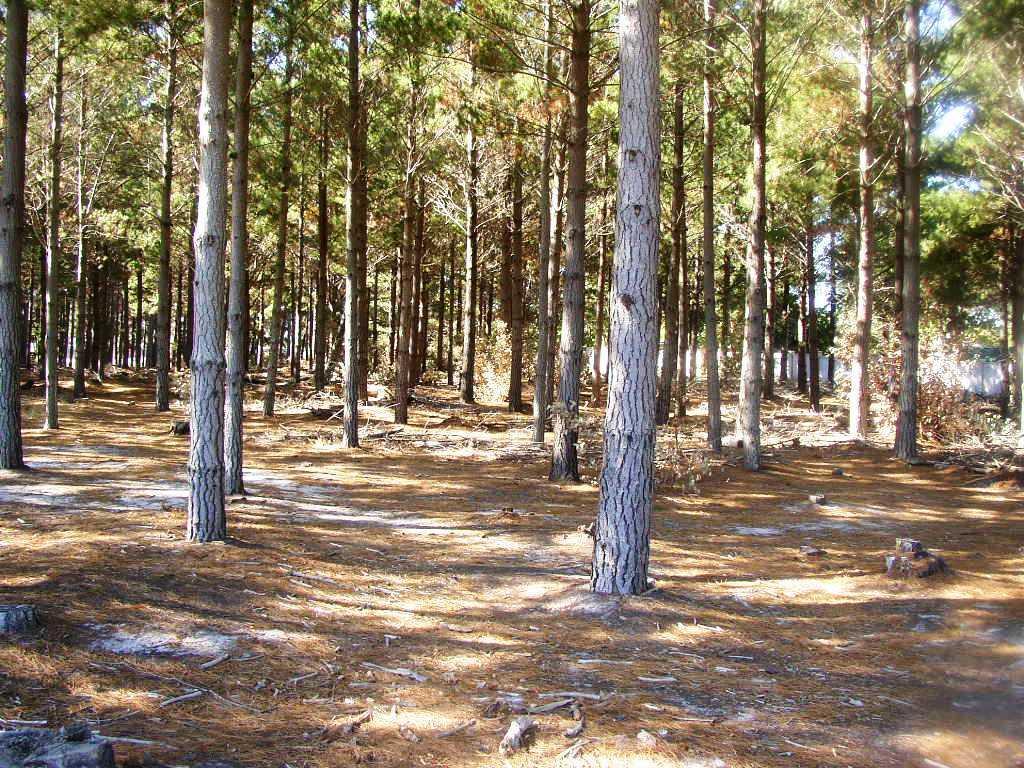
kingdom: Plantae
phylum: Tracheophyta
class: Pinopsida
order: Pinales
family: Pinaceae
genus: Pinus
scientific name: Pinus radiata
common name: Monterey pine
